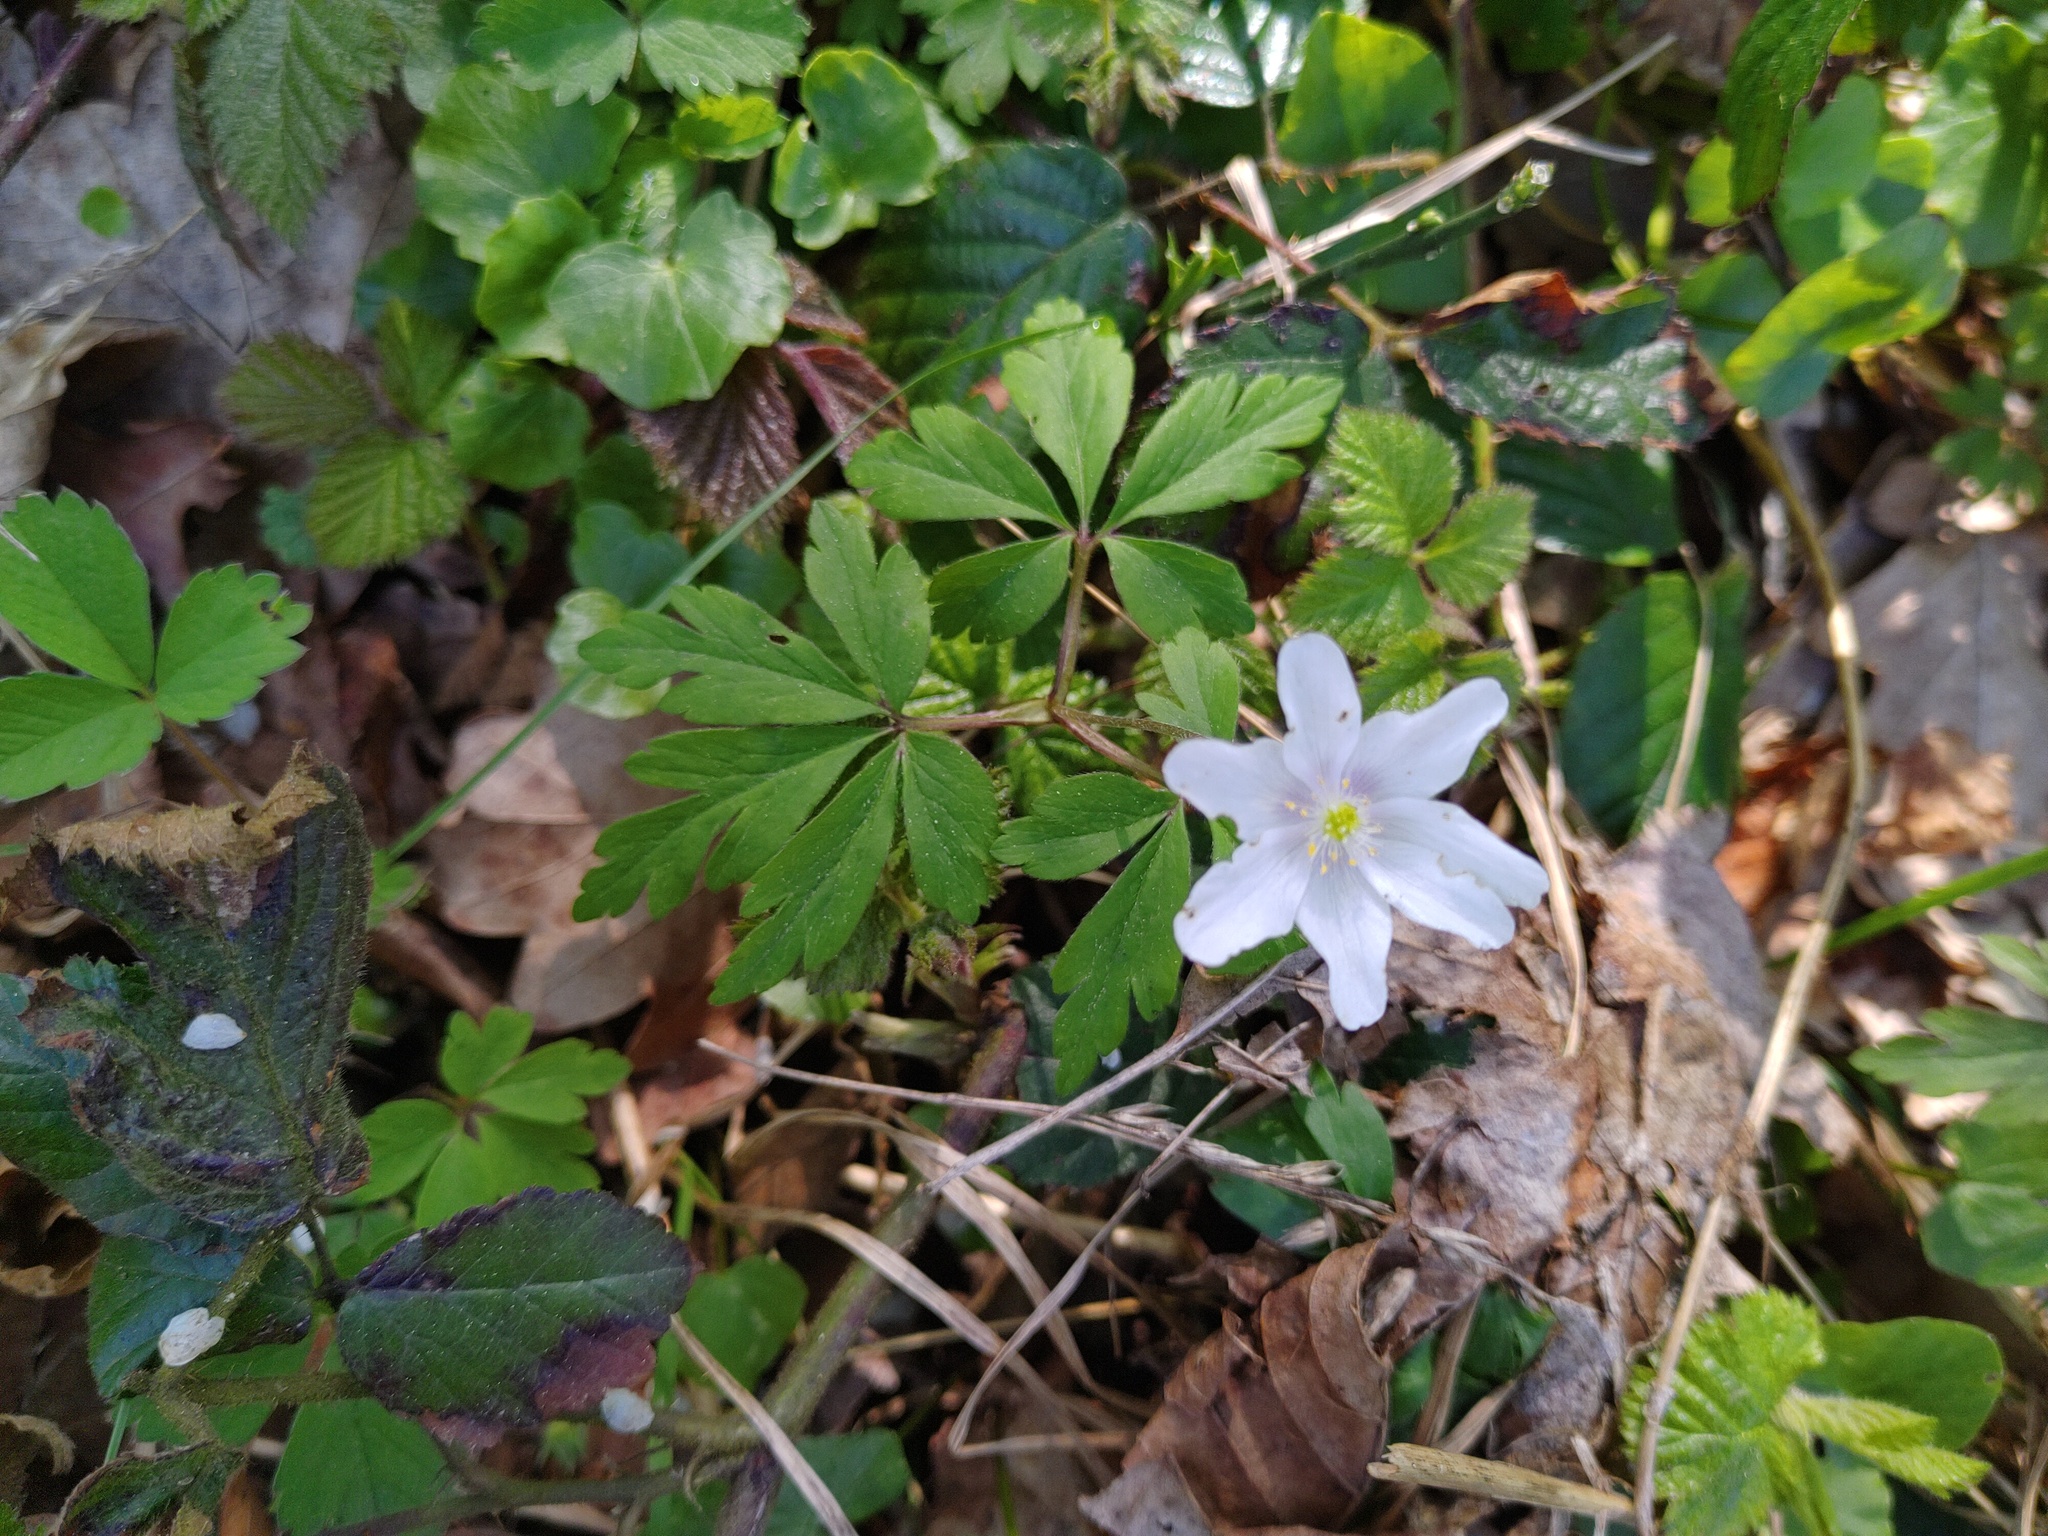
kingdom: Plantae
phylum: Tracheophyta
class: Magnoliopsida
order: Ranunculales
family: Ranunculaceae
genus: Anemone
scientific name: Anemone nemorosa
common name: Wood anemone
